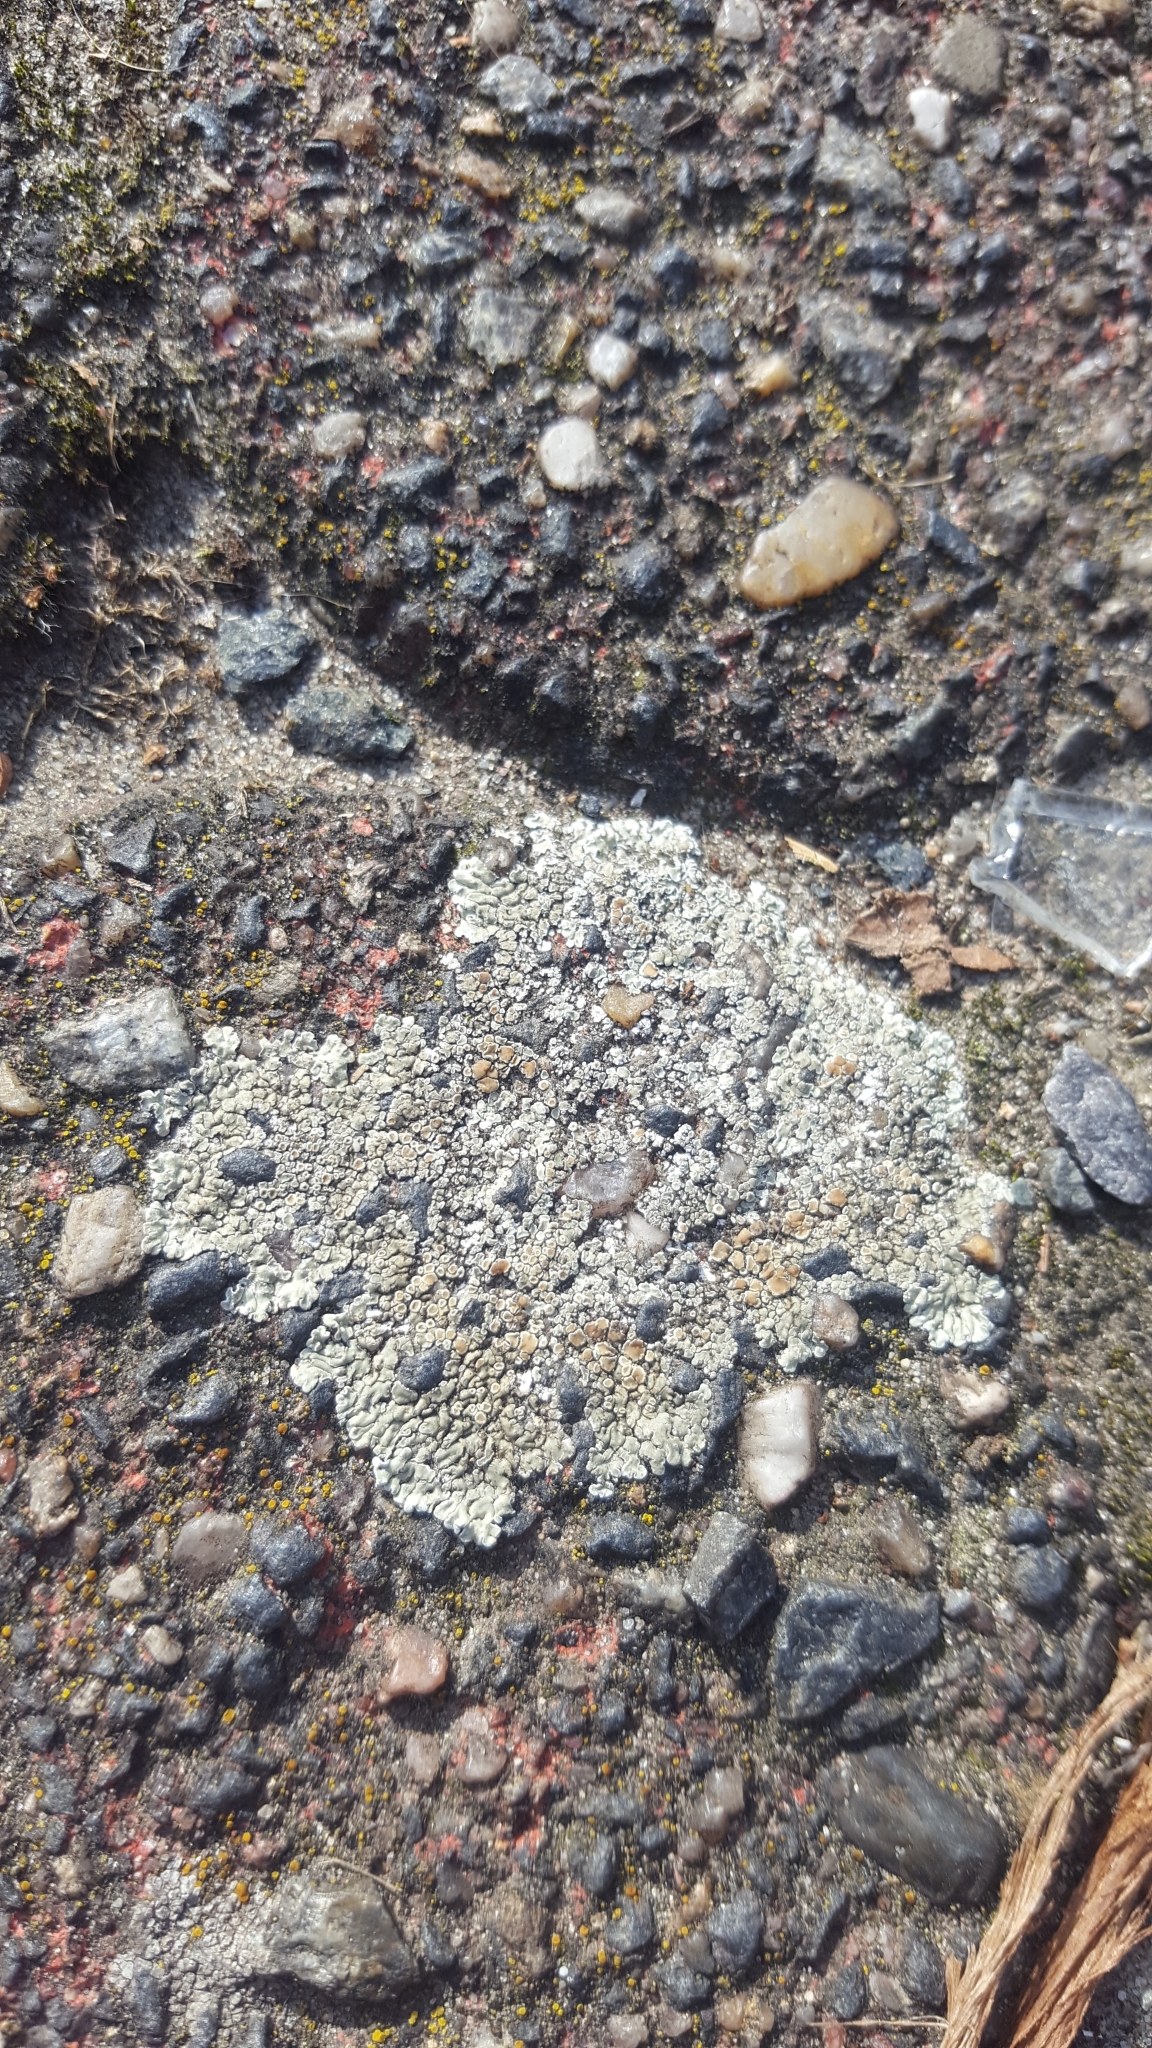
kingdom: Fungi
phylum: Ascomycota
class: Lecanoromycetes
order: Lecanorales
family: Lecanoraceae
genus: Protoparmeliopsis
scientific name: Protoparmeliopsis muralis
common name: Stonewall rim lichen
